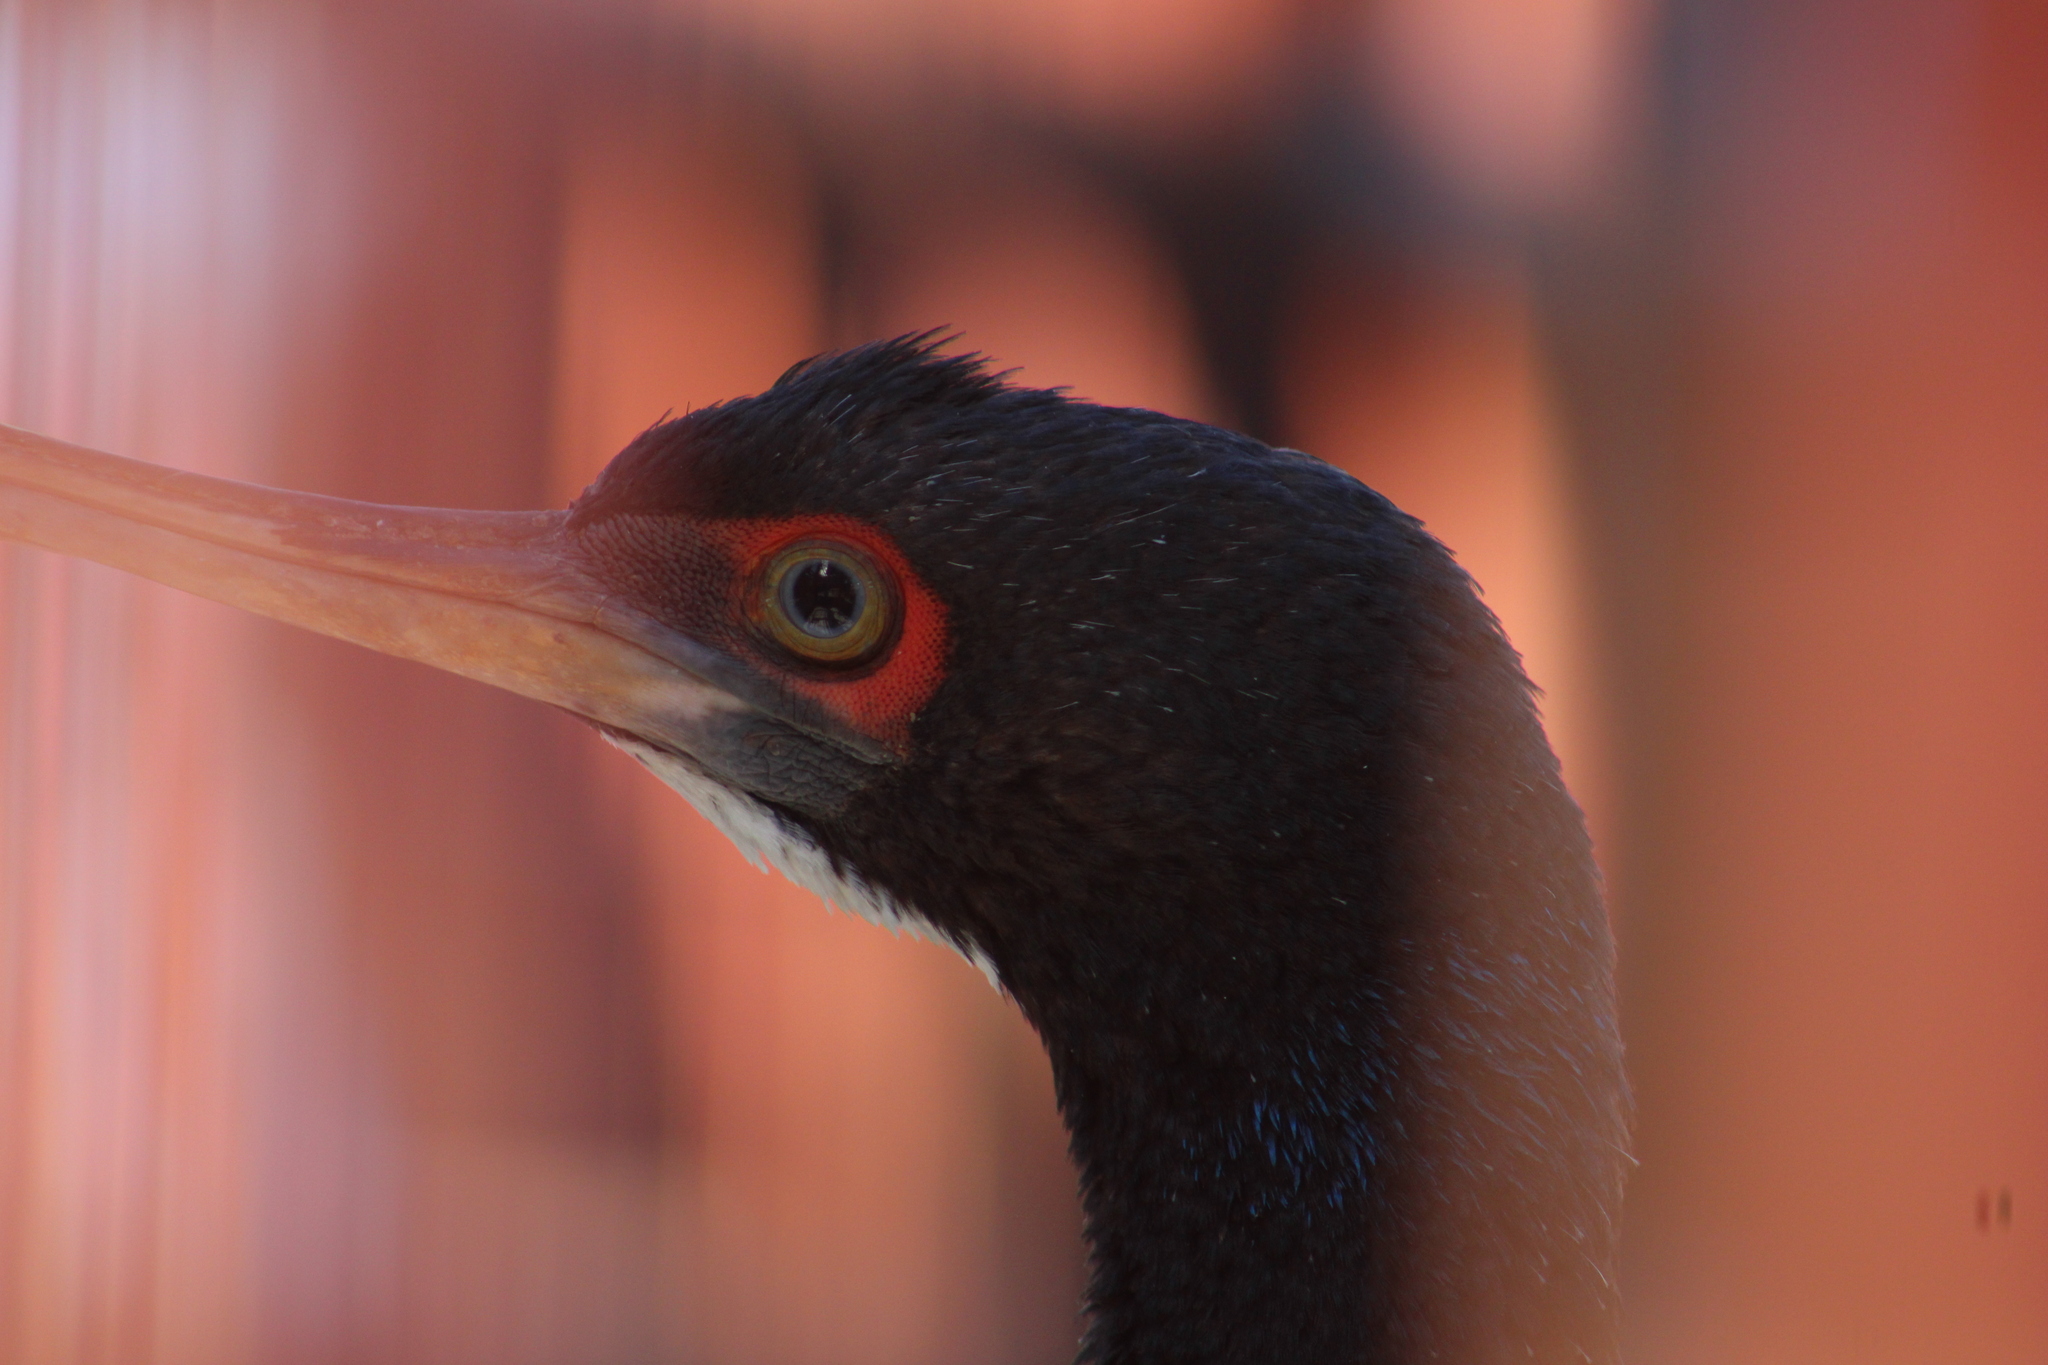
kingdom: Animalia
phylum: Chordata
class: Aves
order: Suliformes
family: Phalacrocoracidae
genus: Leucocarbo
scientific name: Leucocarbo bougainvillii
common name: Guanay cormorant
